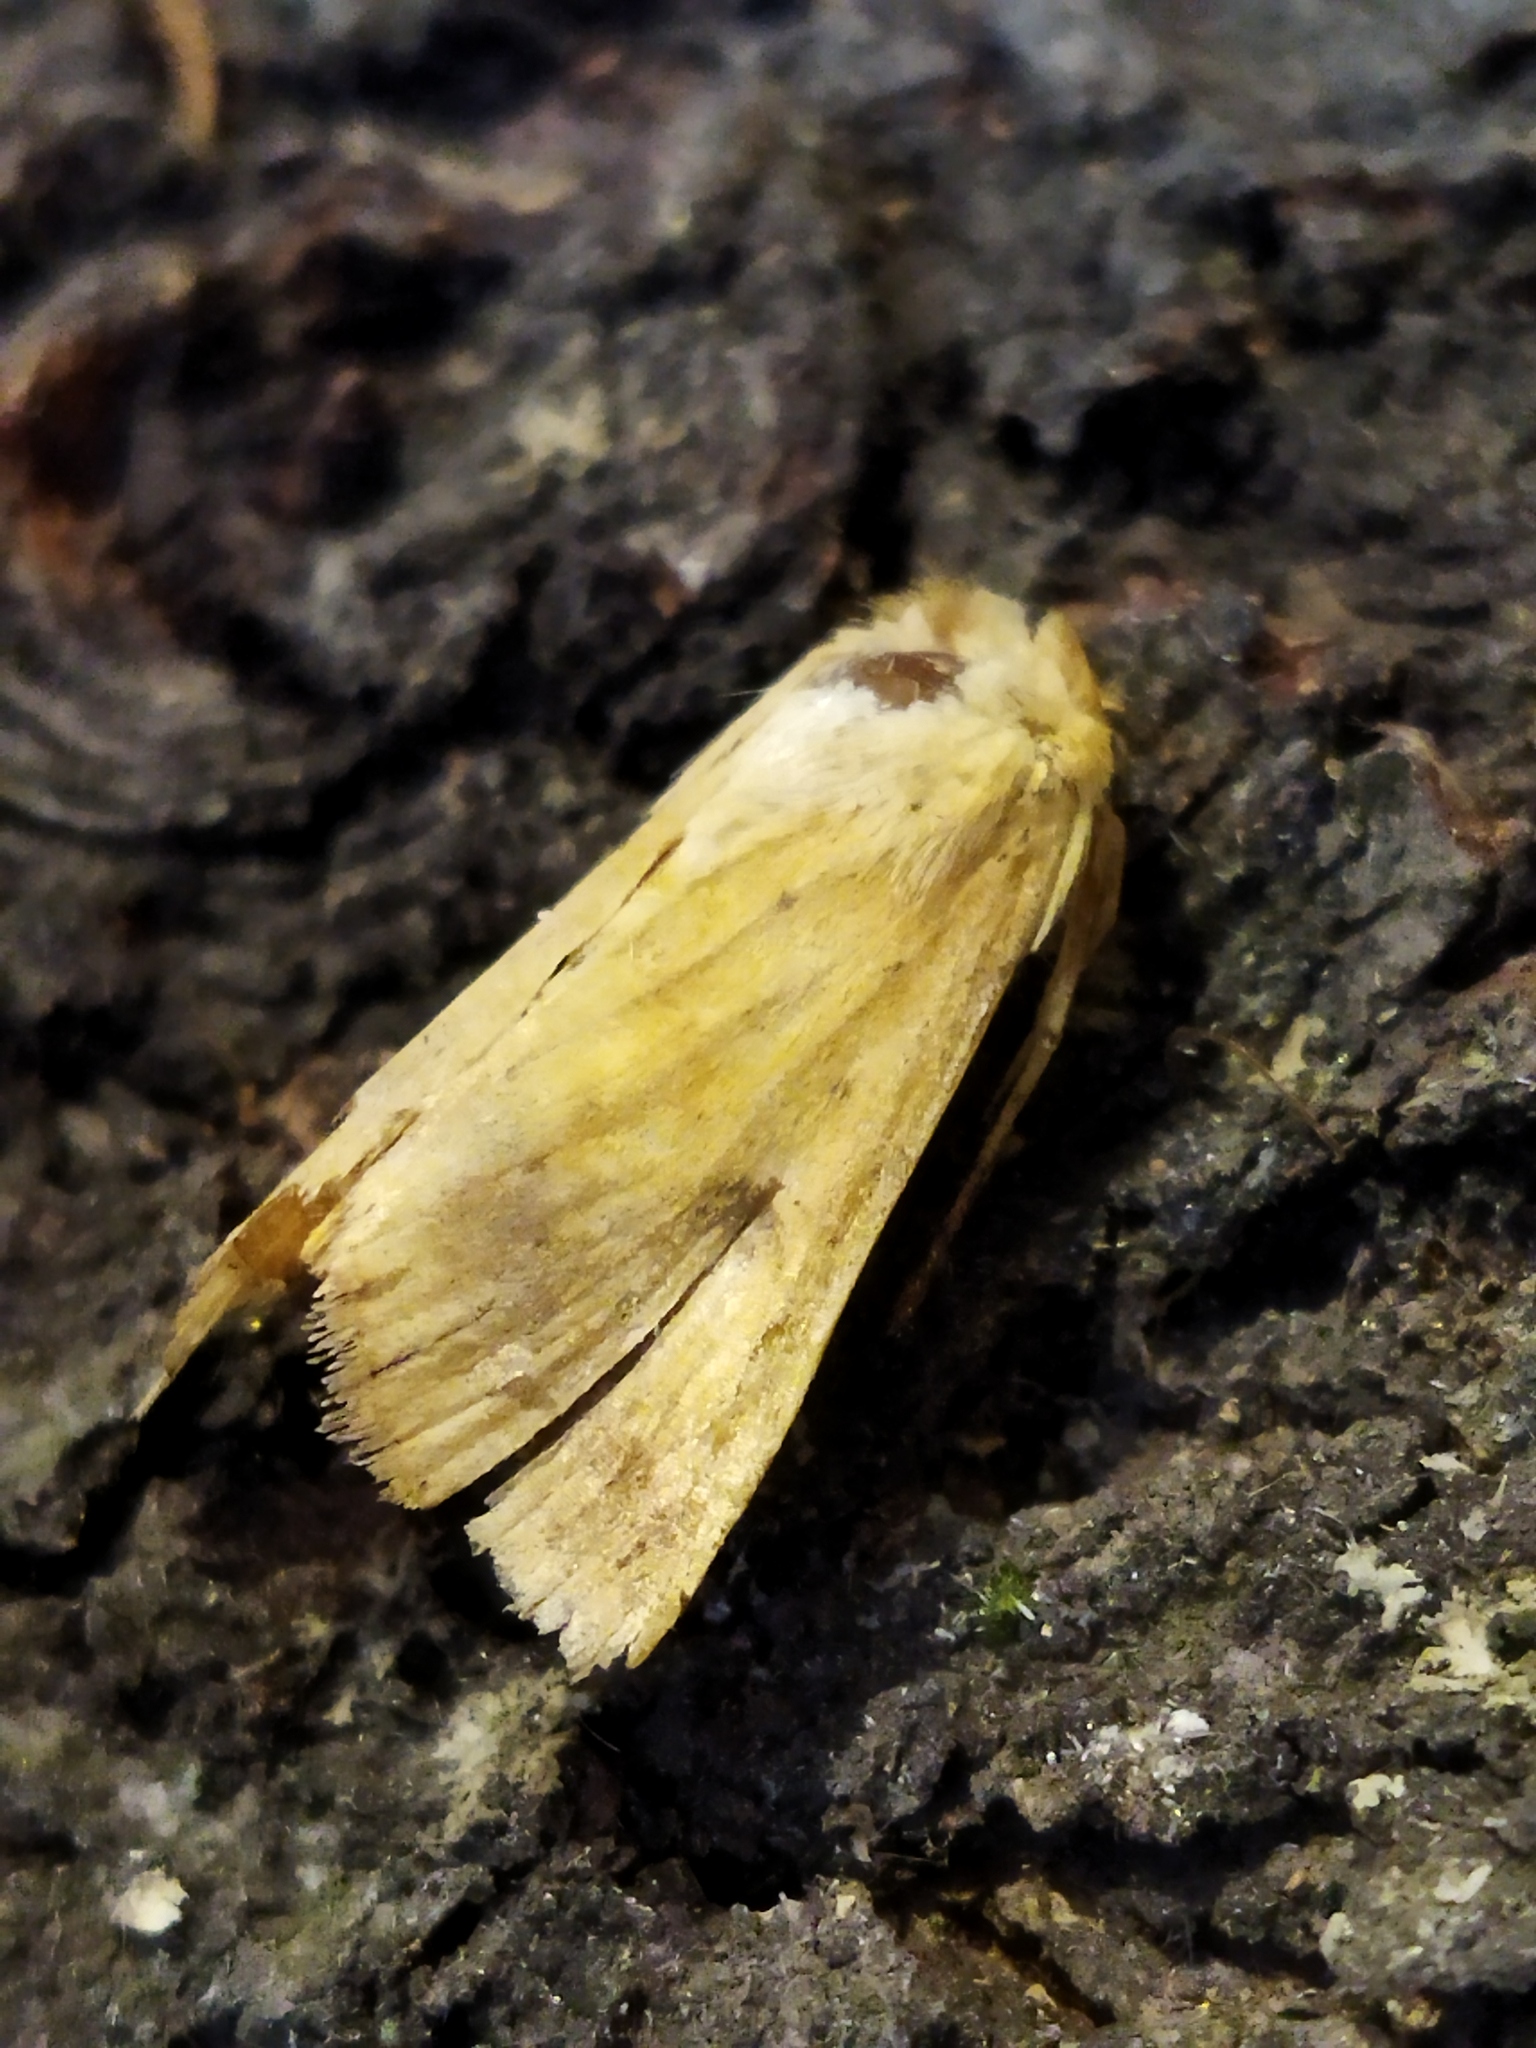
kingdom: Animalia
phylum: Arthropoda
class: Insecta
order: Lepidoptera
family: Noctuidae
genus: Helicoverpa
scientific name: Helicoverpa armigera
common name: Cotton bollworm
